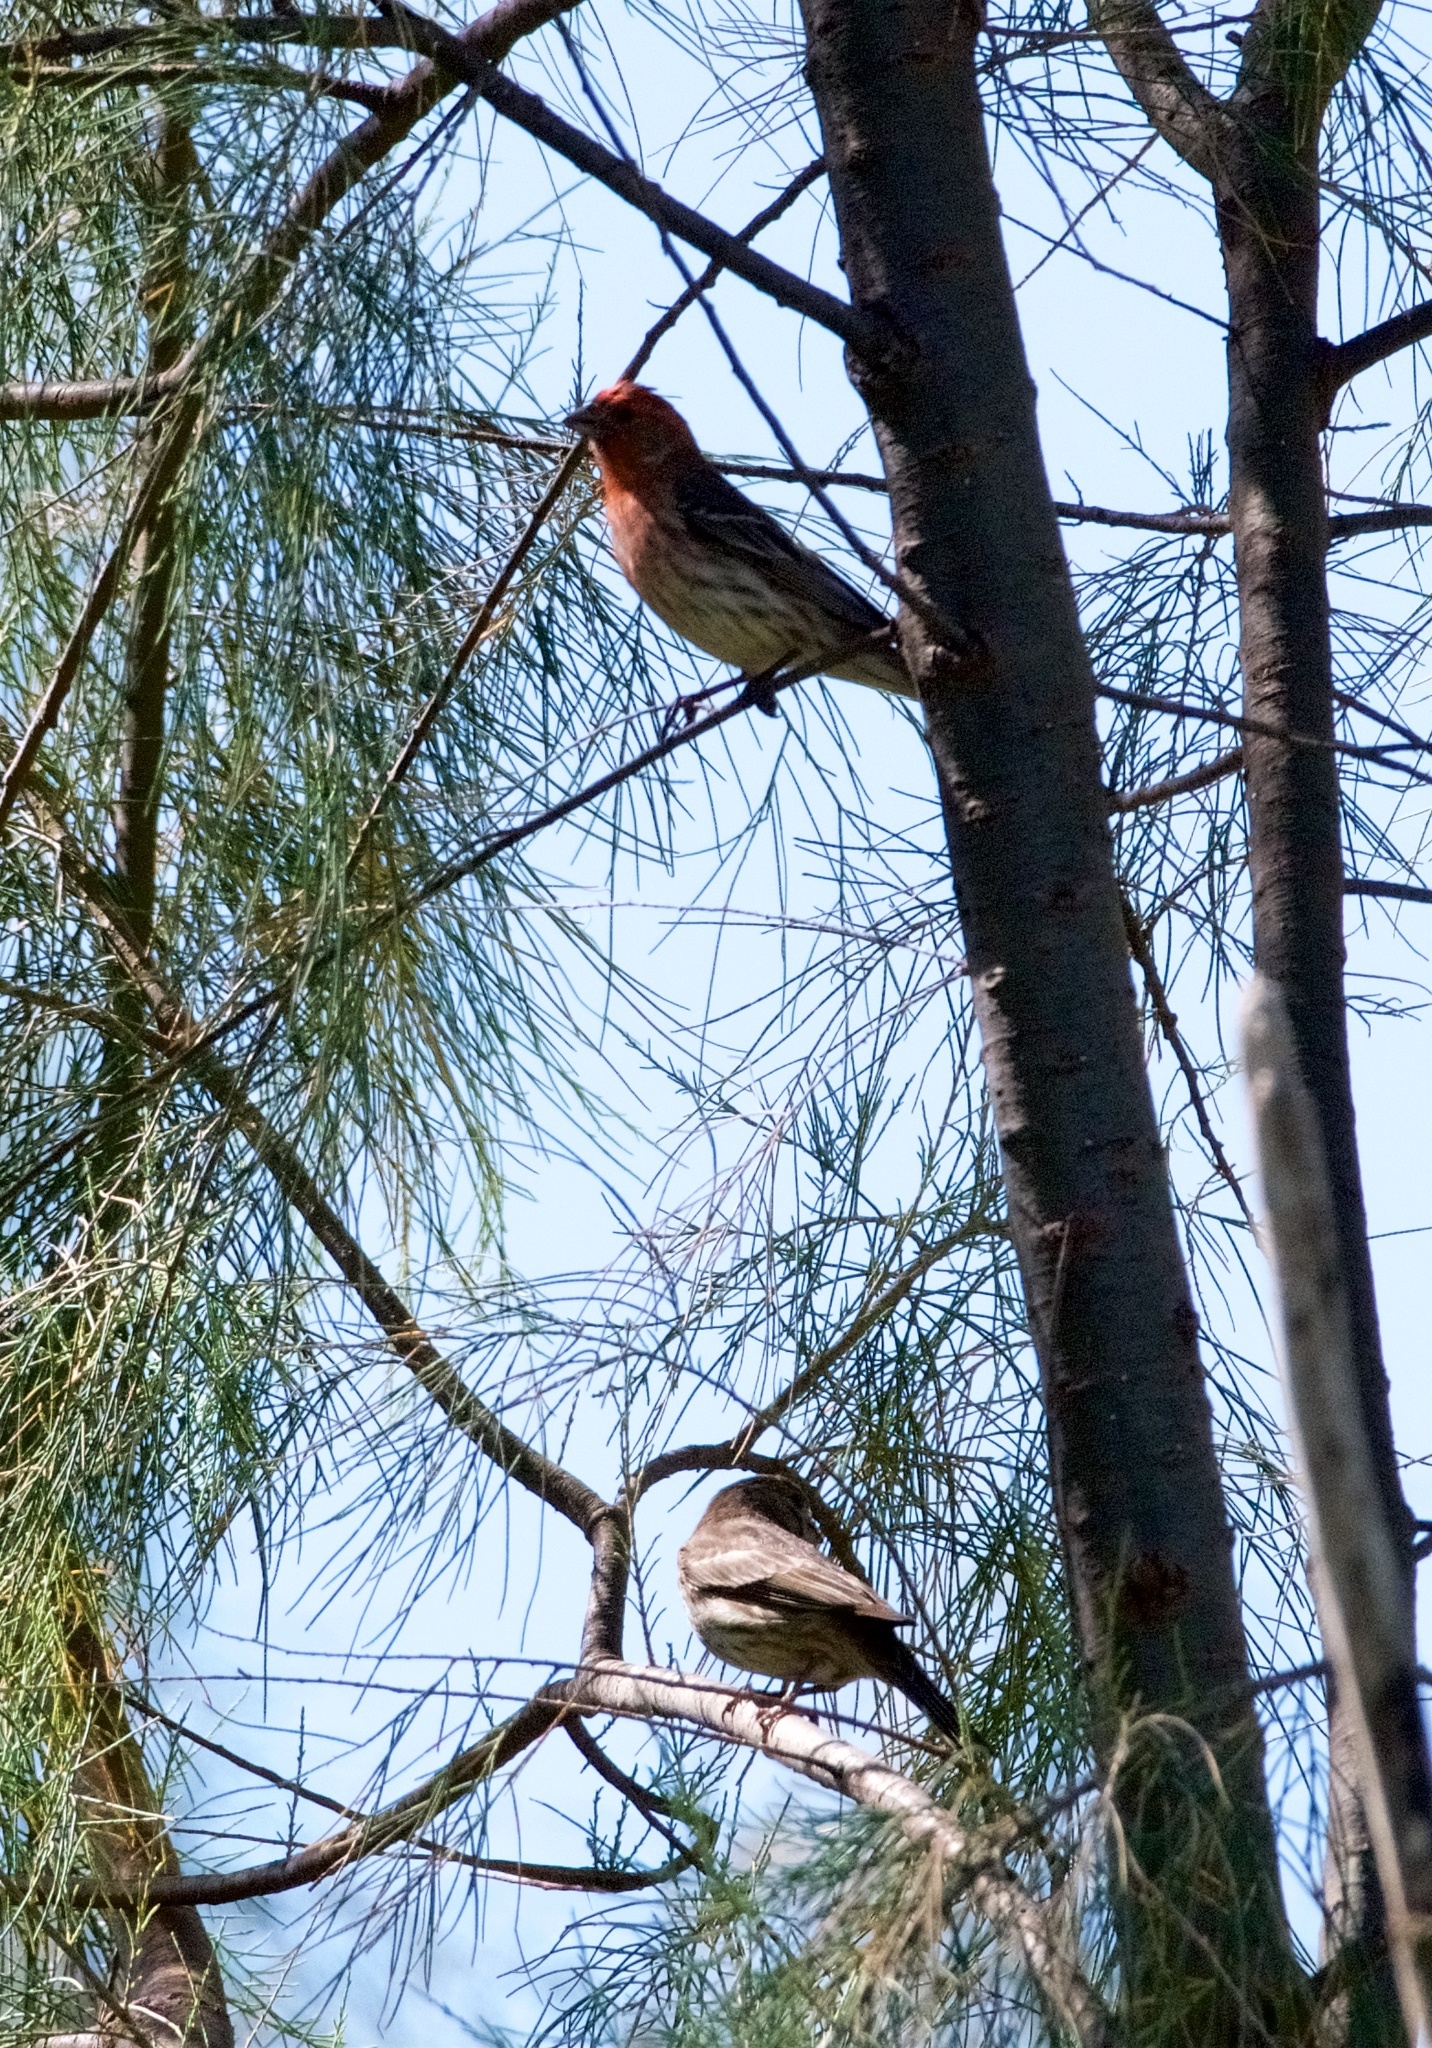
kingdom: Animalia
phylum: Chordata
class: Aves
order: Passeriformes
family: Fringillidae
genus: Haemorhous
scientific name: Haemorhous mexicanus
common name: House finch
